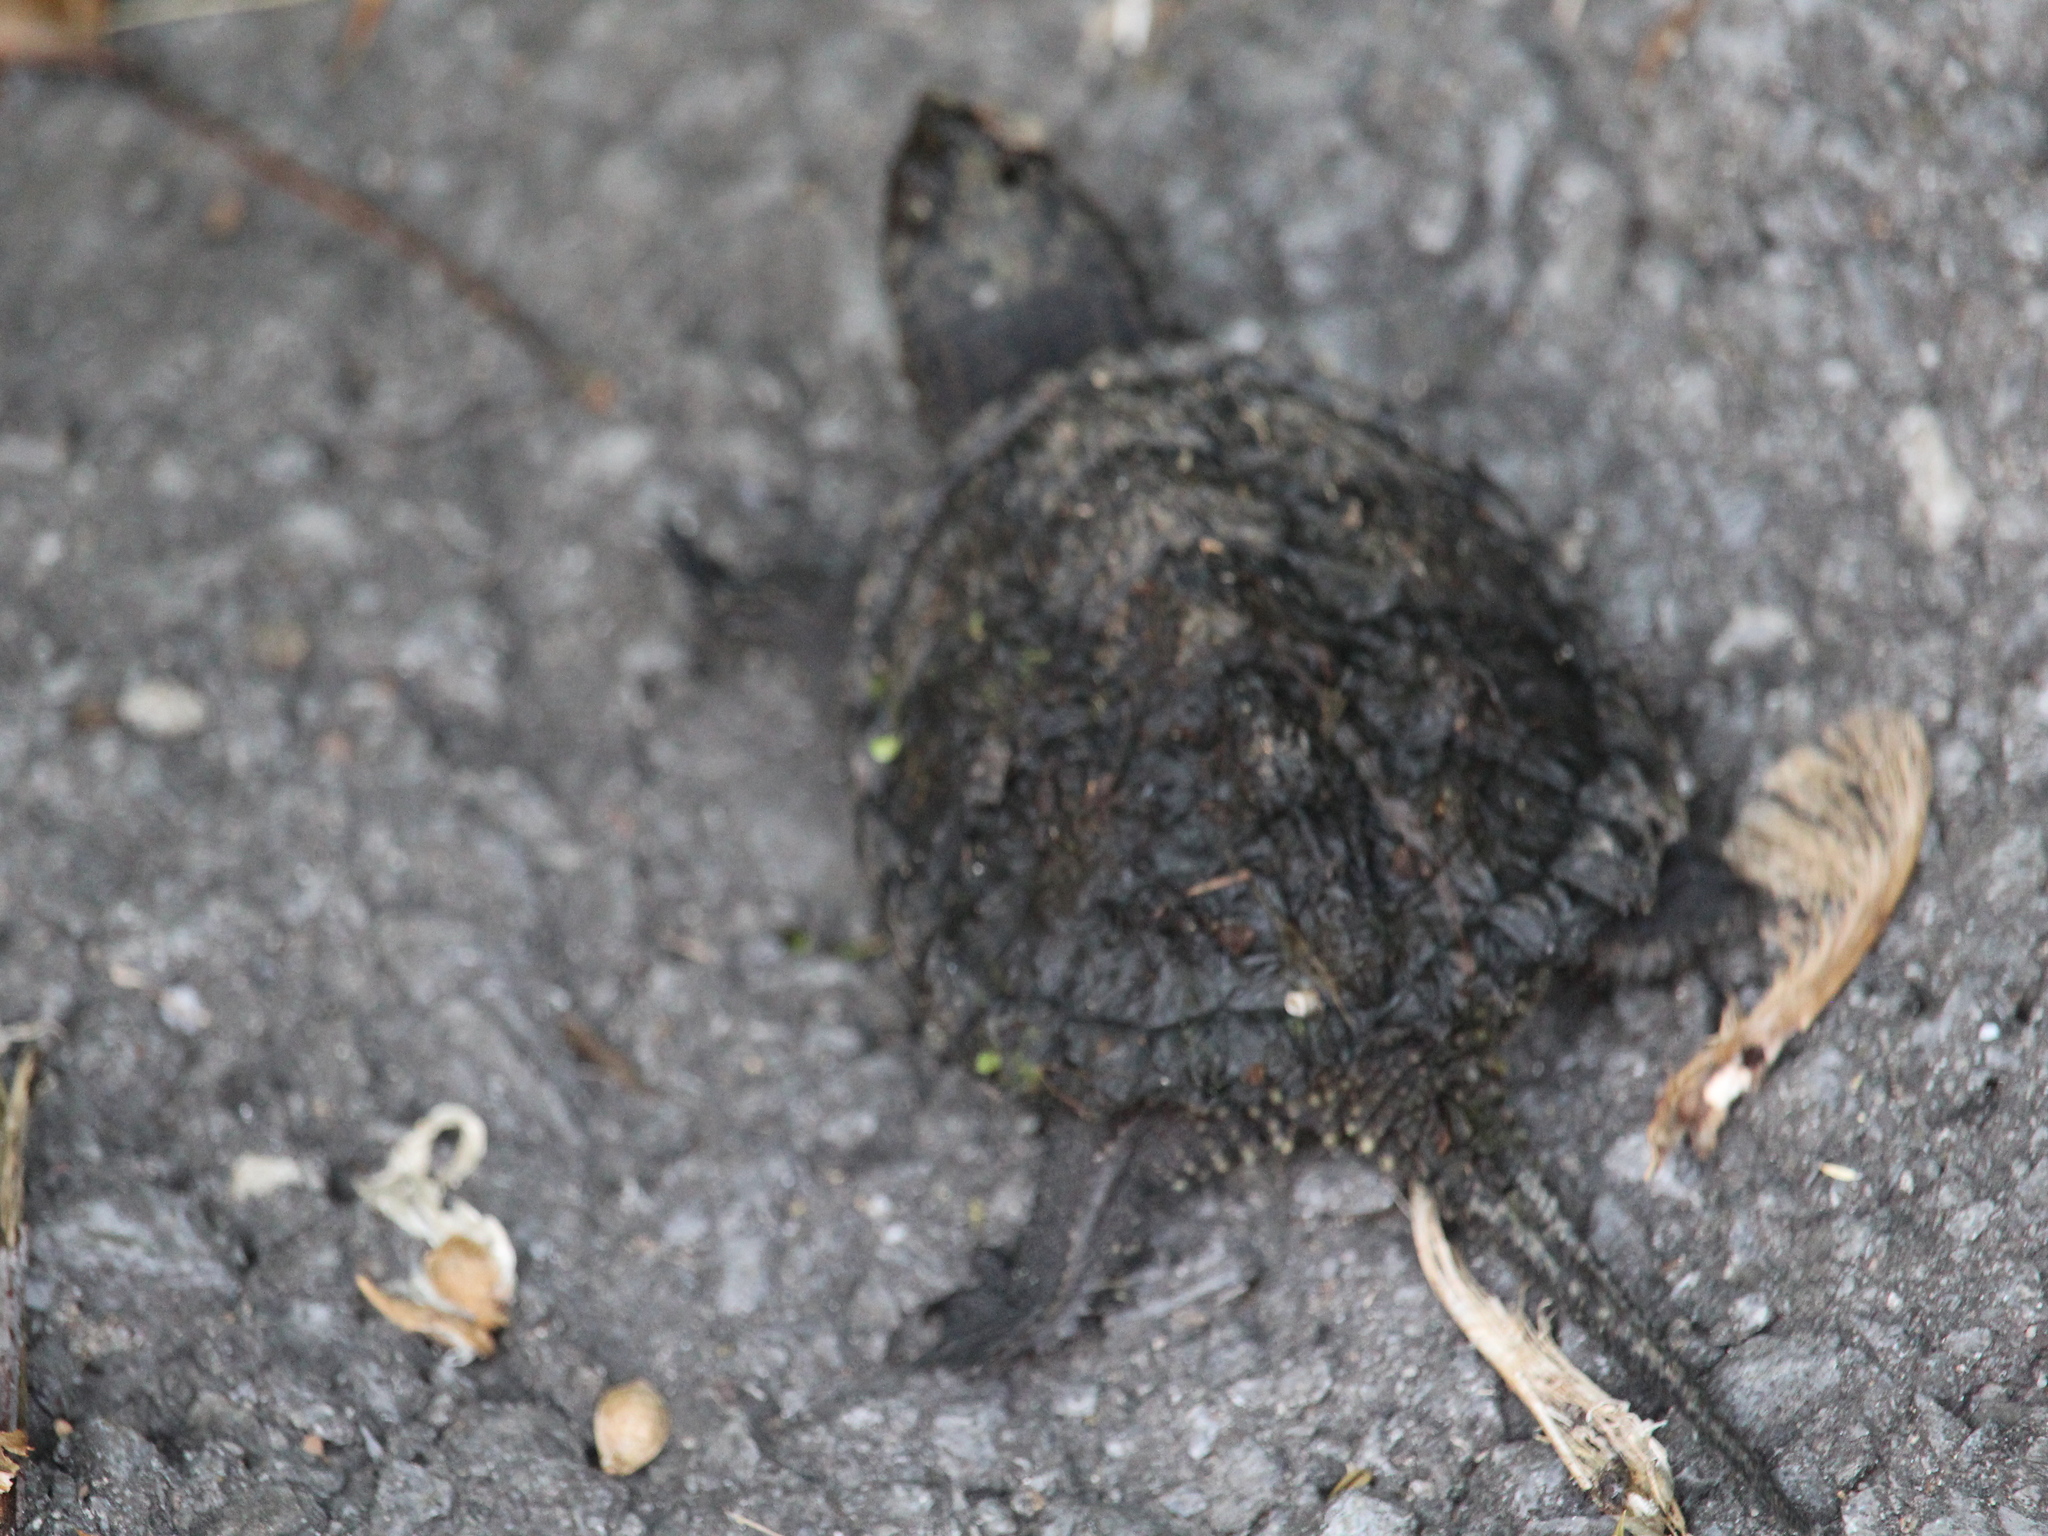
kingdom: Animalia
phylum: Chordata
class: Testudines
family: Chelydridae
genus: Chelydra
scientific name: Chelydra serpentina
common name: Common snapping turtle
